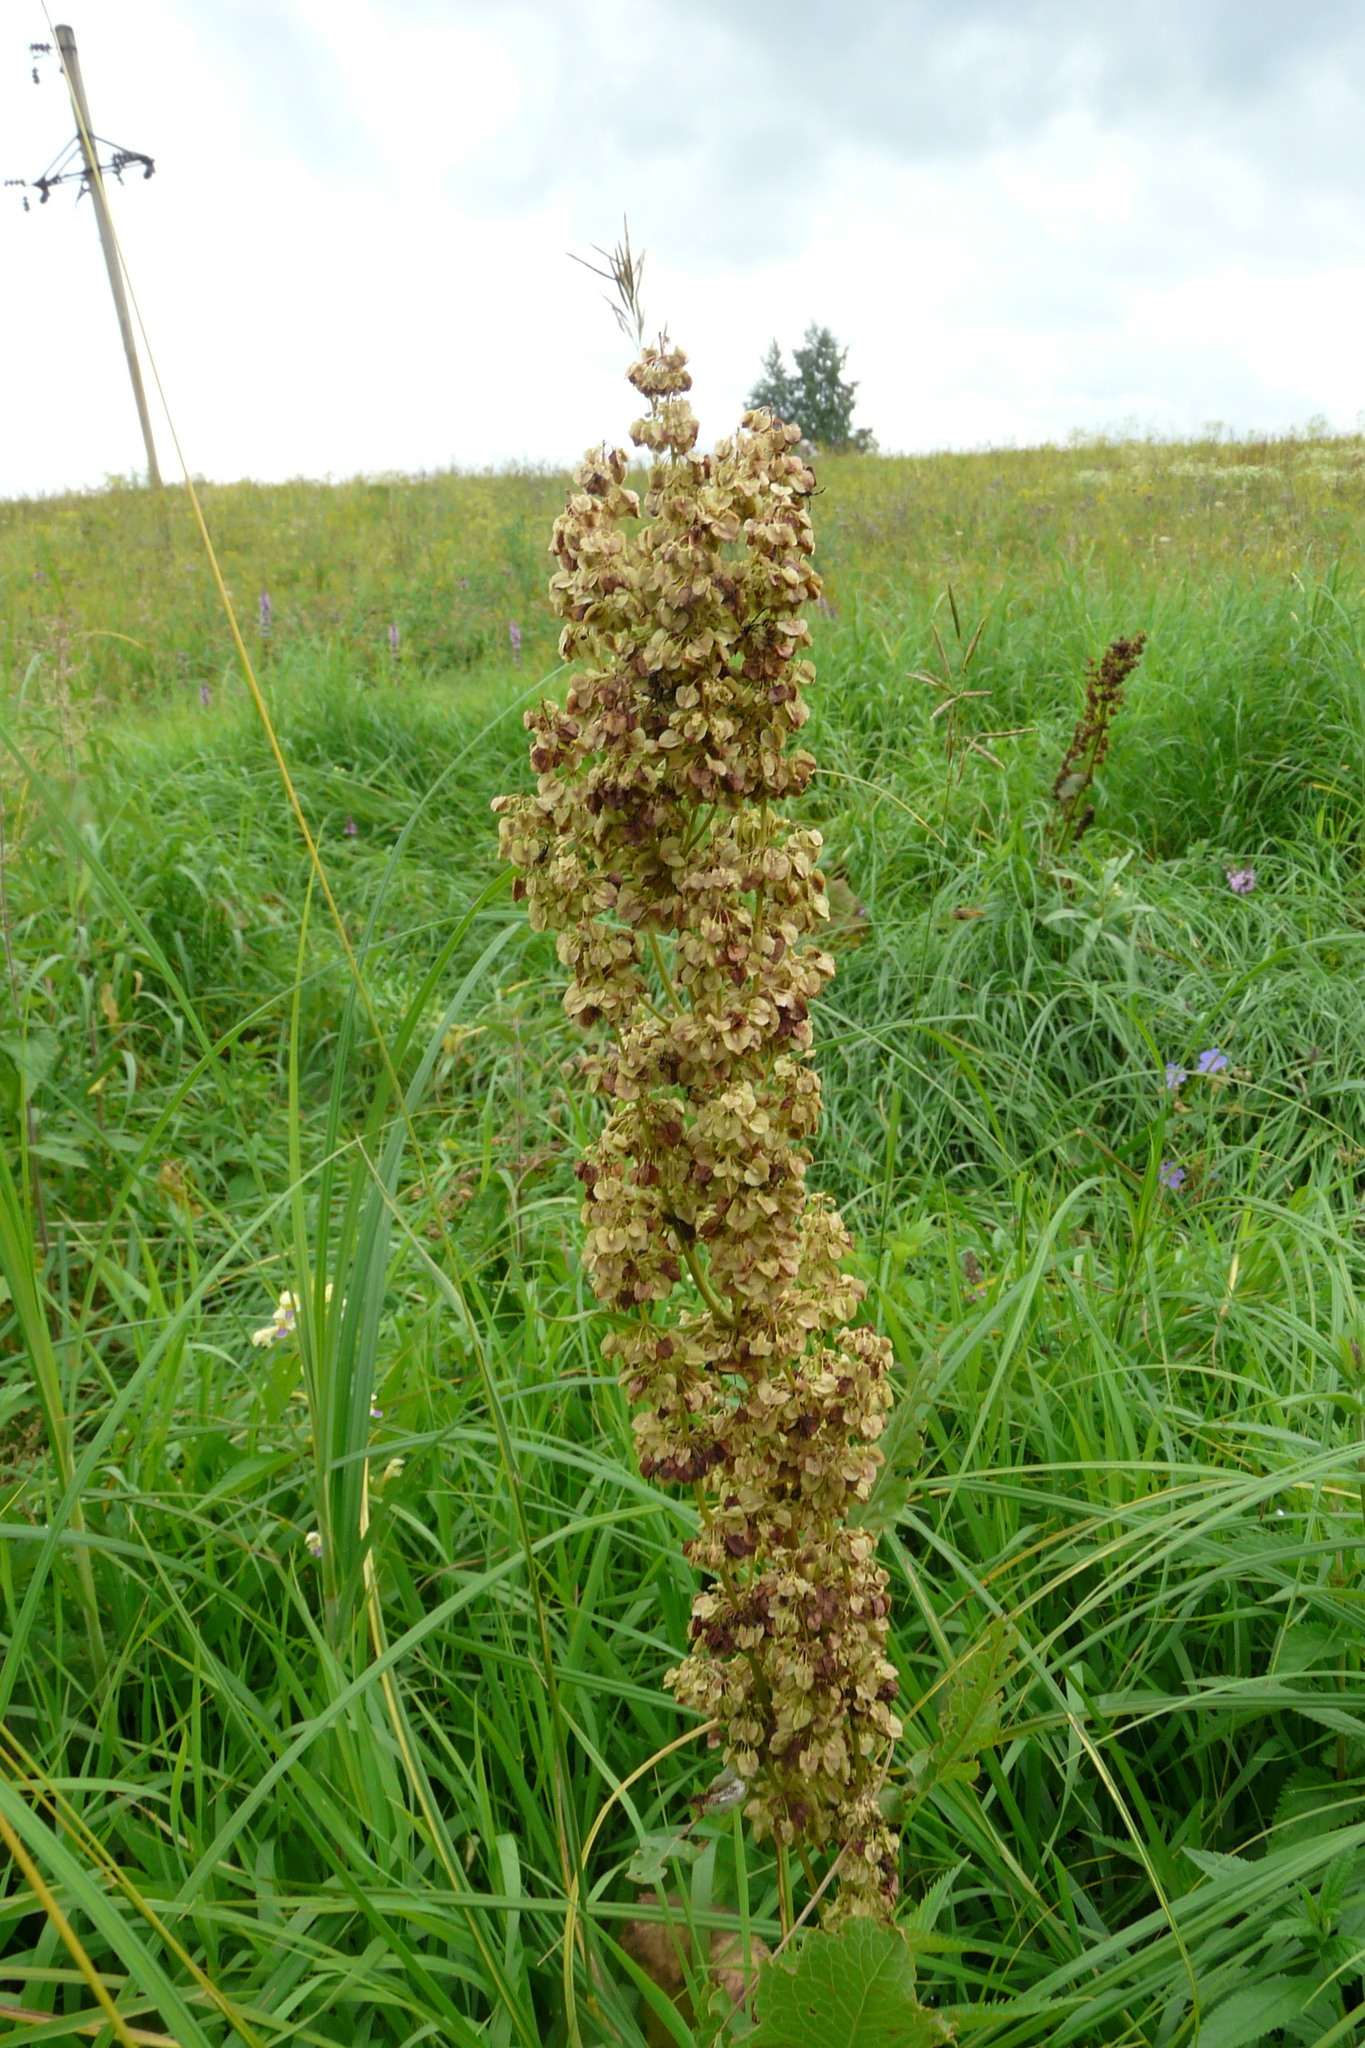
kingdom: Plantae
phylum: Tracheophyta
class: Magnoliopsida
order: Caryophyllales
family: Polygonaceae
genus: Rumex
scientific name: Rumex confertus
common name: Russian dock
